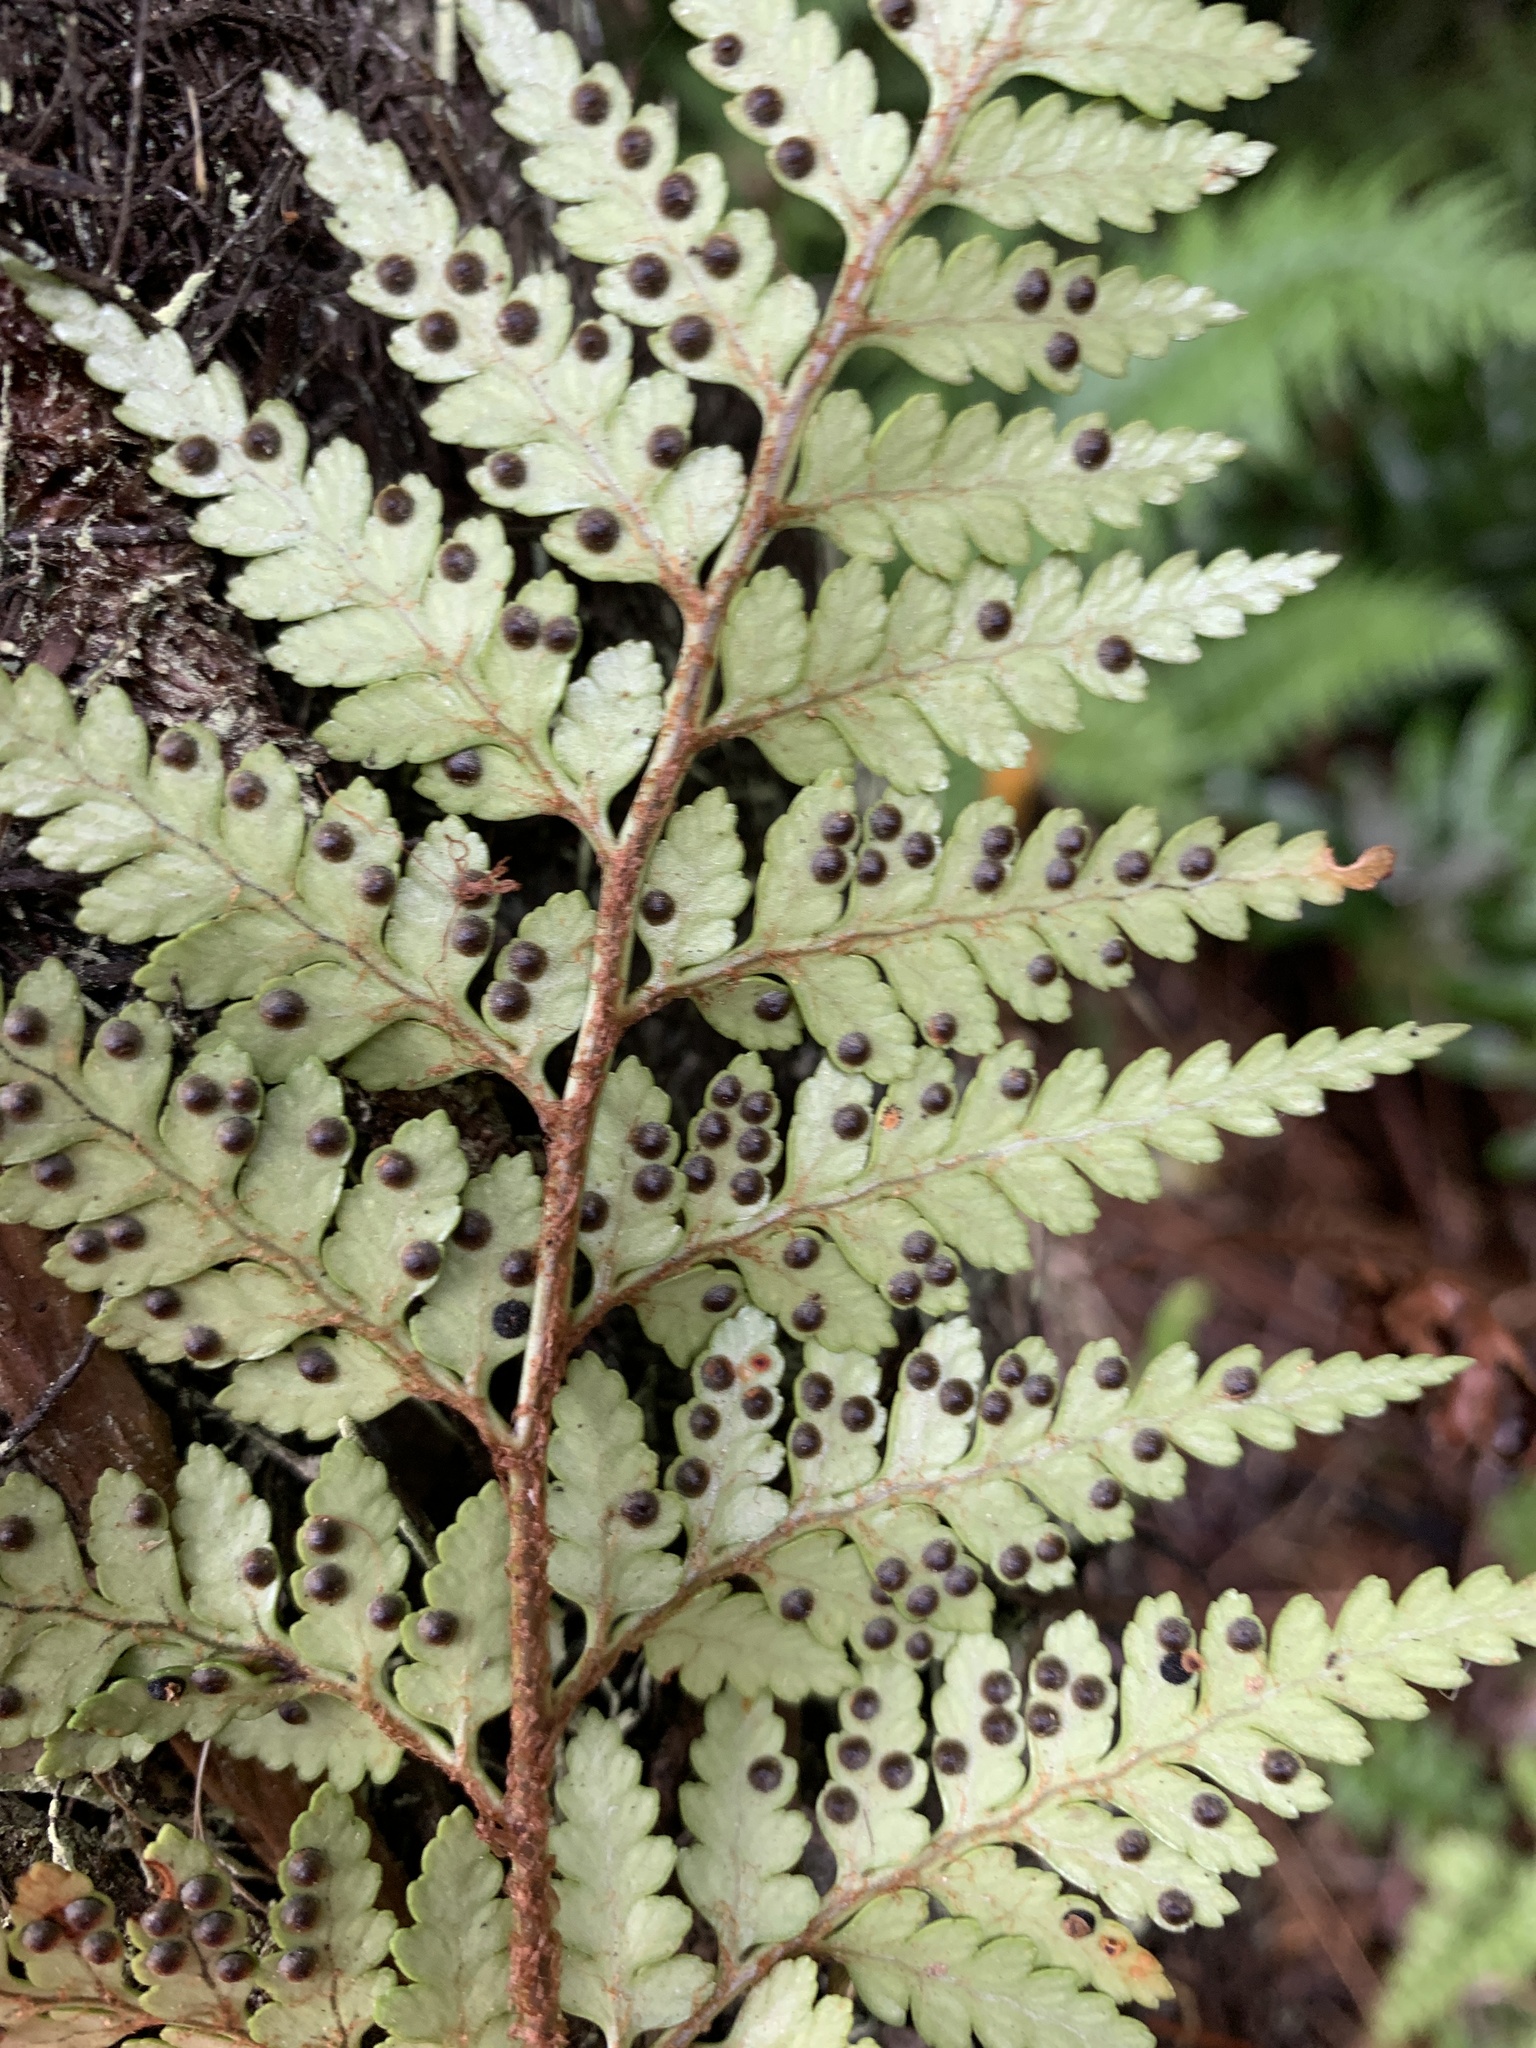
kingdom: Plantae
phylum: Tracheophyta
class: Polypodiopsida
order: Polypodiales
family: Dryopteridaceae
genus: Rumohra
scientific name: Rumohra adiantiformis
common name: Leather fern
